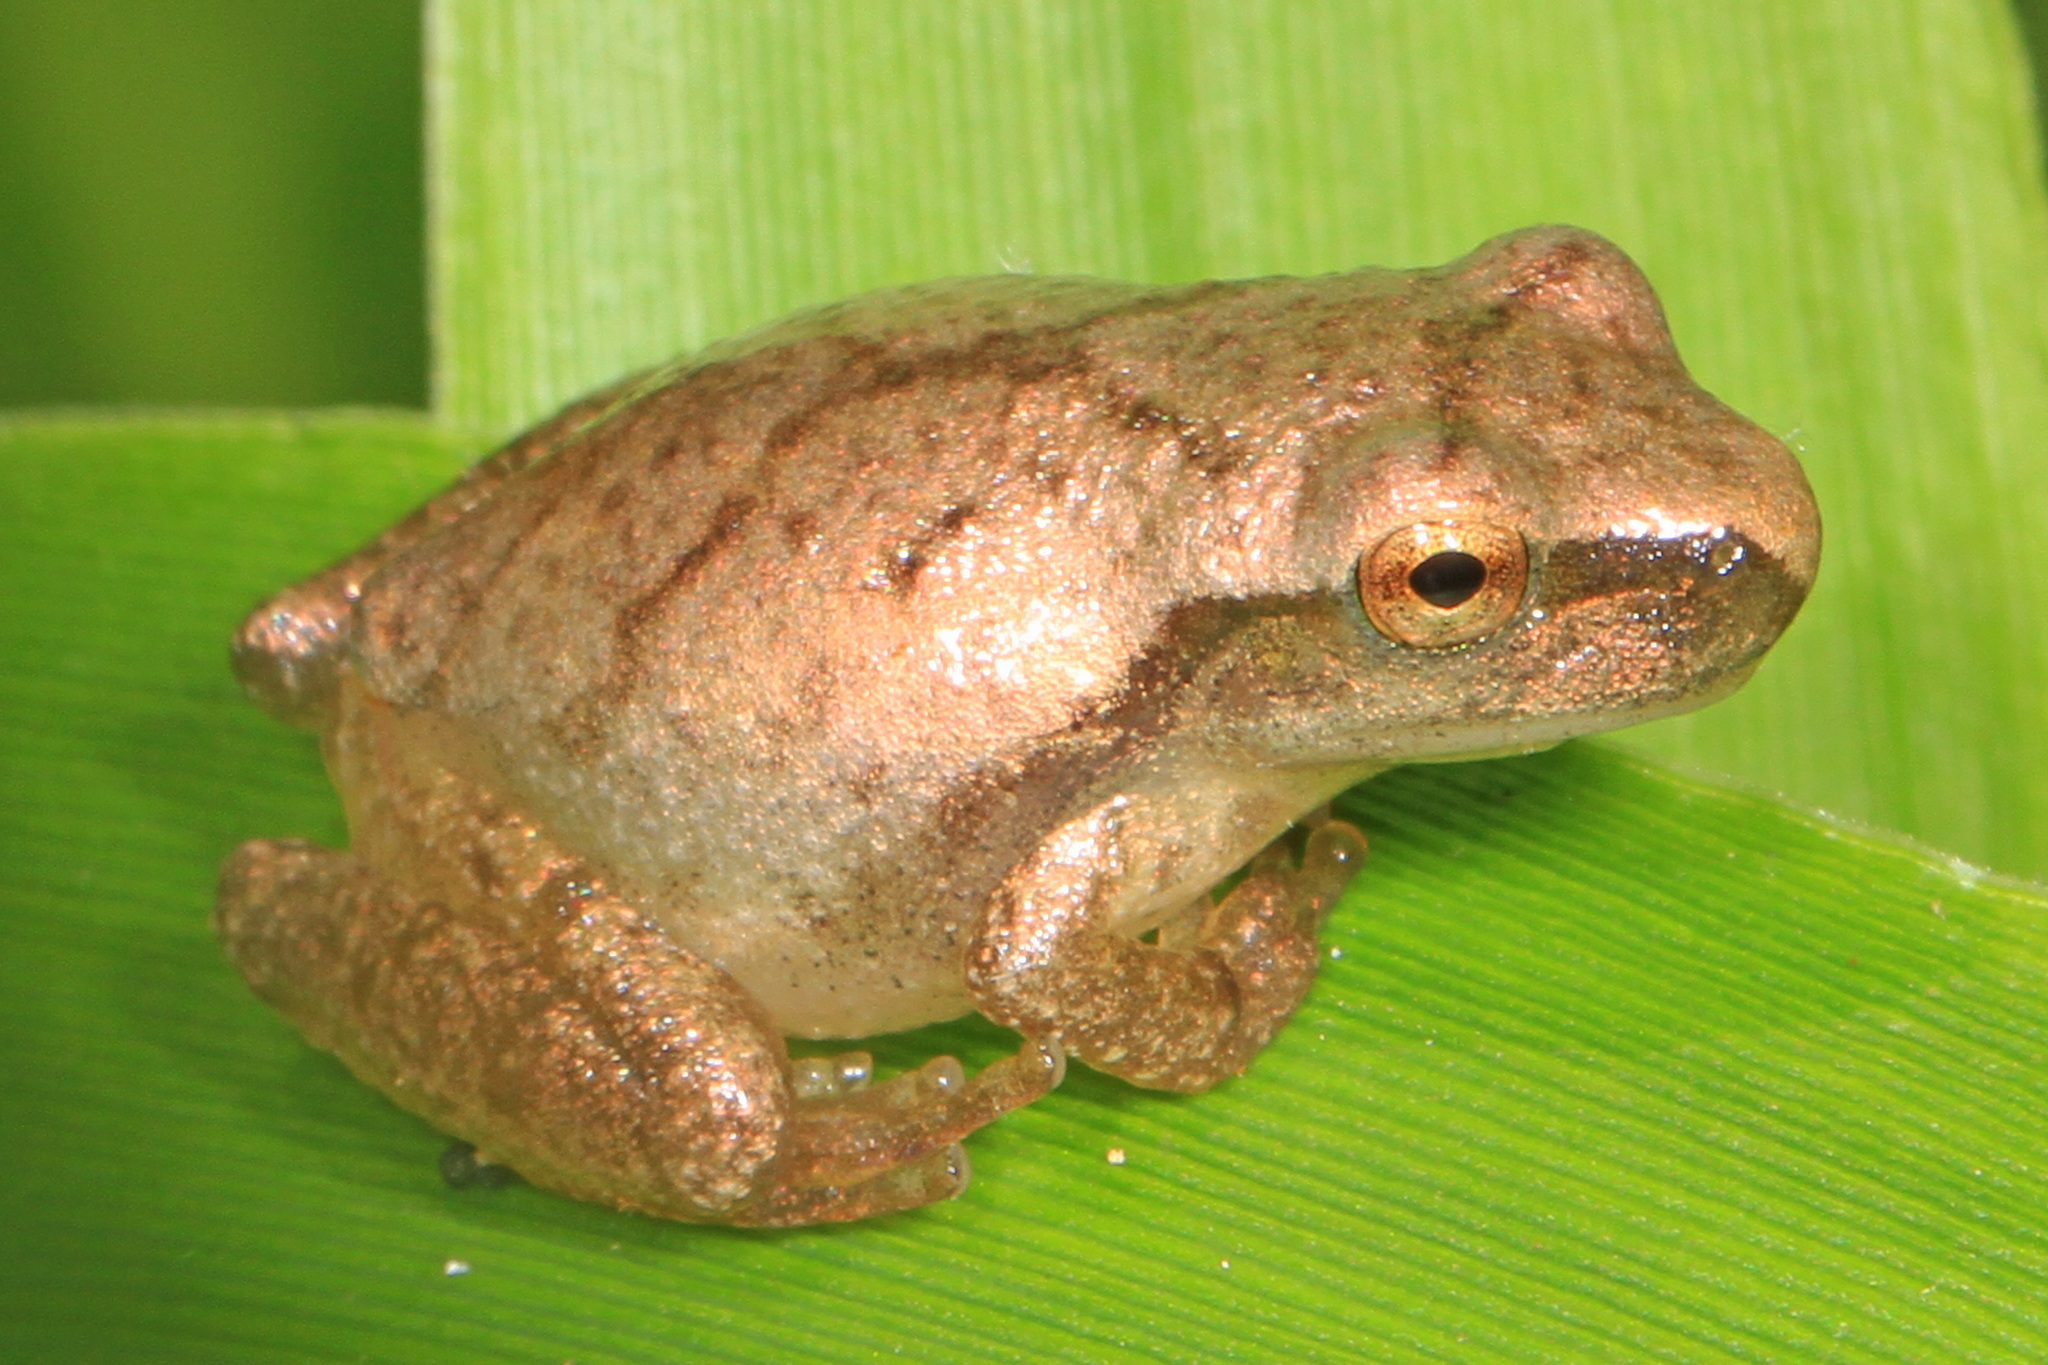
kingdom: Animalia
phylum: Chordata
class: Amphibia
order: Anura
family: Hylidae
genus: Pseudacris
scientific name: Pseudacris crucifer
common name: Spring peeper
